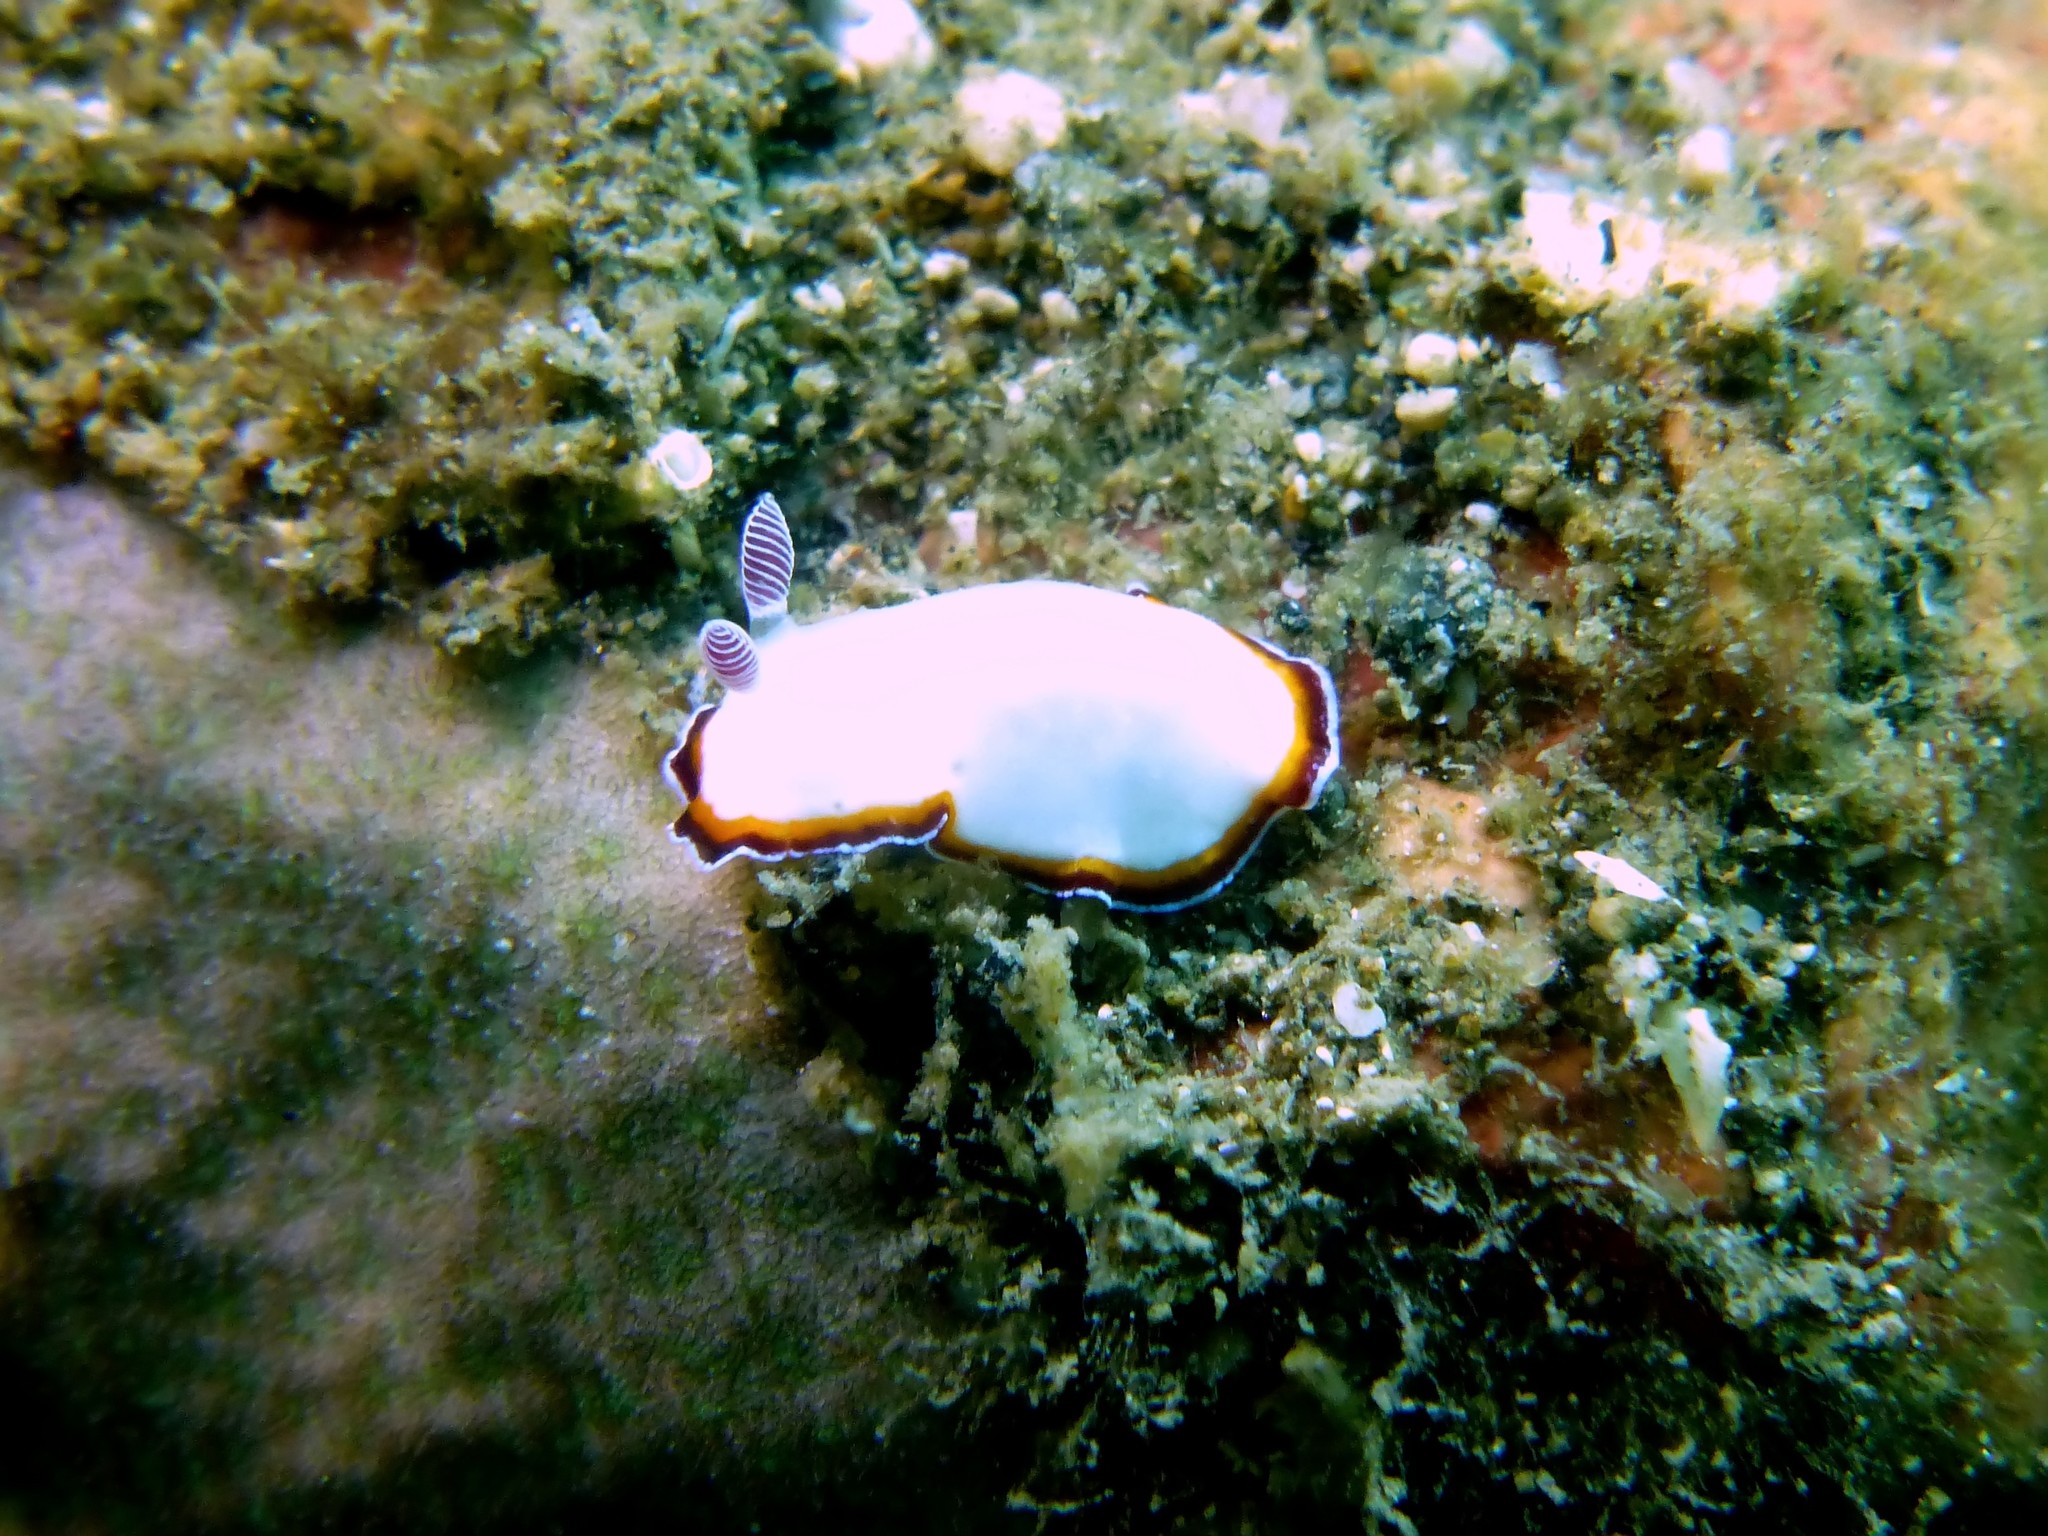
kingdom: Animalia
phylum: Mollusca
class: Gastropoda
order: Nudibranchia
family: Chromodorididae
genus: Goniobranchus
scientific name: Goniobranchus fabulus
